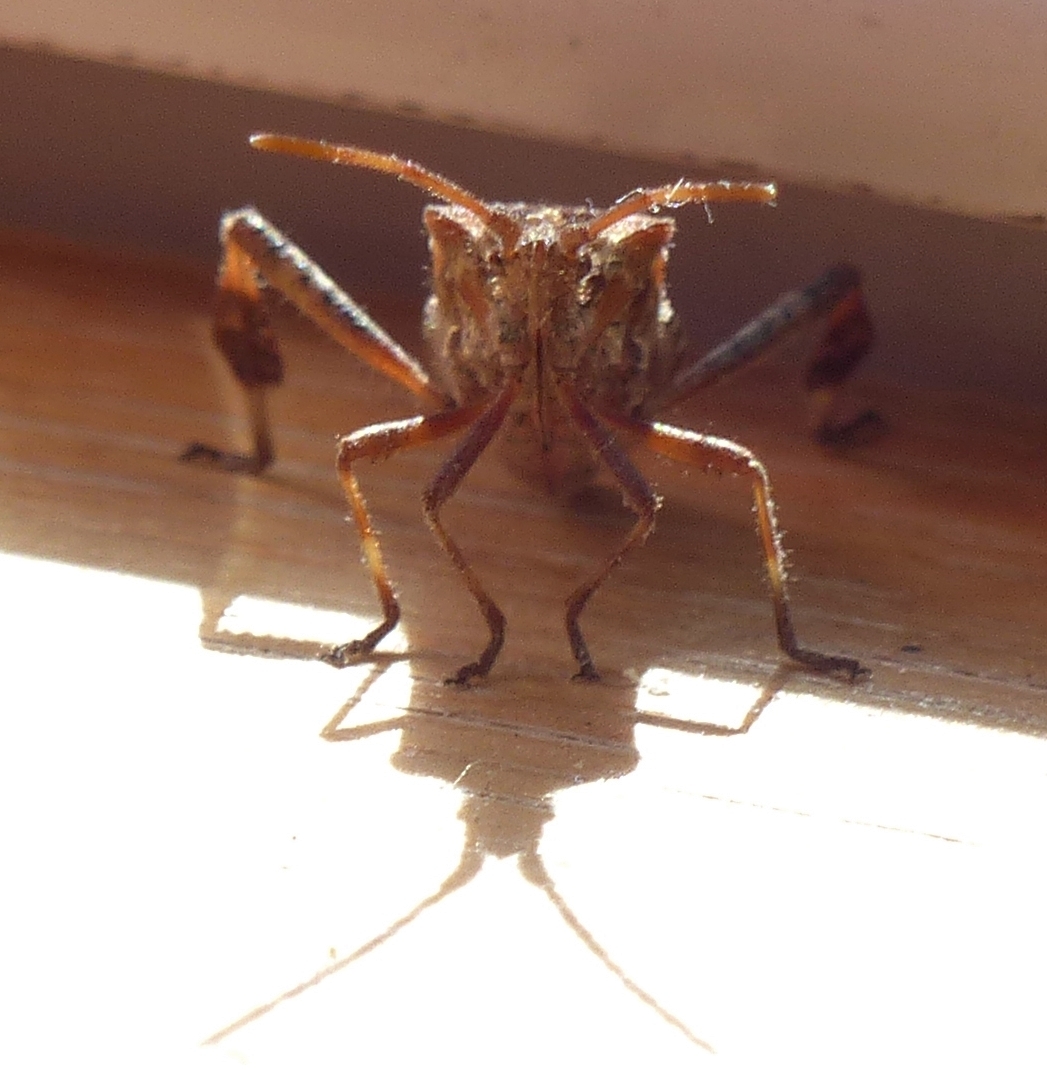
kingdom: Animalia
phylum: Arthropoda
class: Insecta
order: Hemiptera
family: Coreidae
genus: Leptoglossus
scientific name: Leptoglossus occidentalis
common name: Western conifer-seed bug
